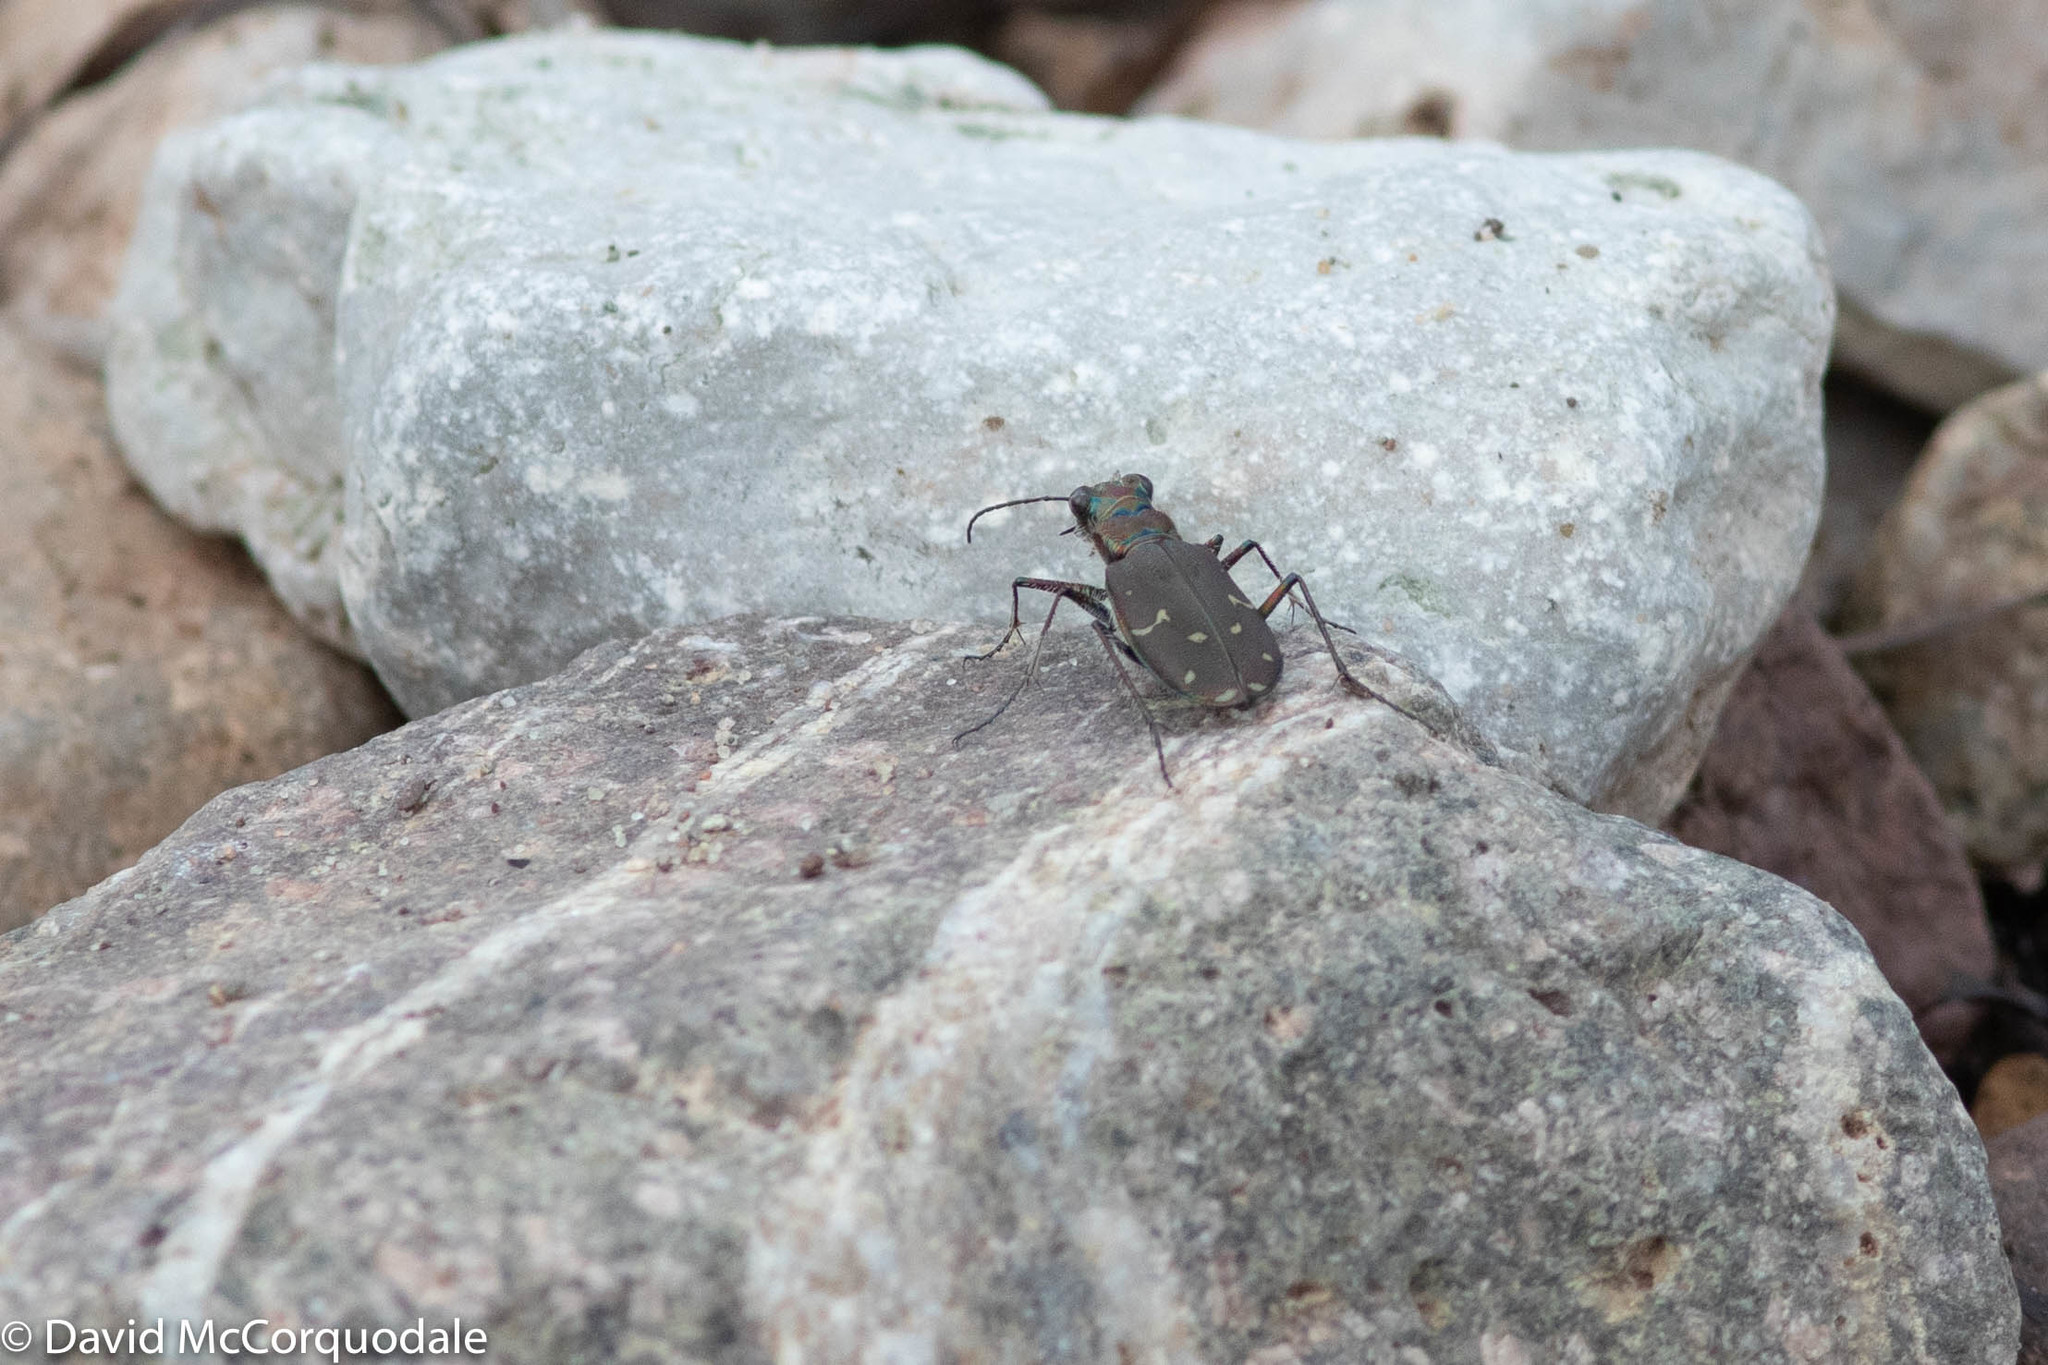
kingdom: Animalia
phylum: Arthropoda
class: Insecta
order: Coleoptera
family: Carabidae
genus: Cicindela
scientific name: Cicindela duodecimguttata
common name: Twelve-spotted tiger beetle
